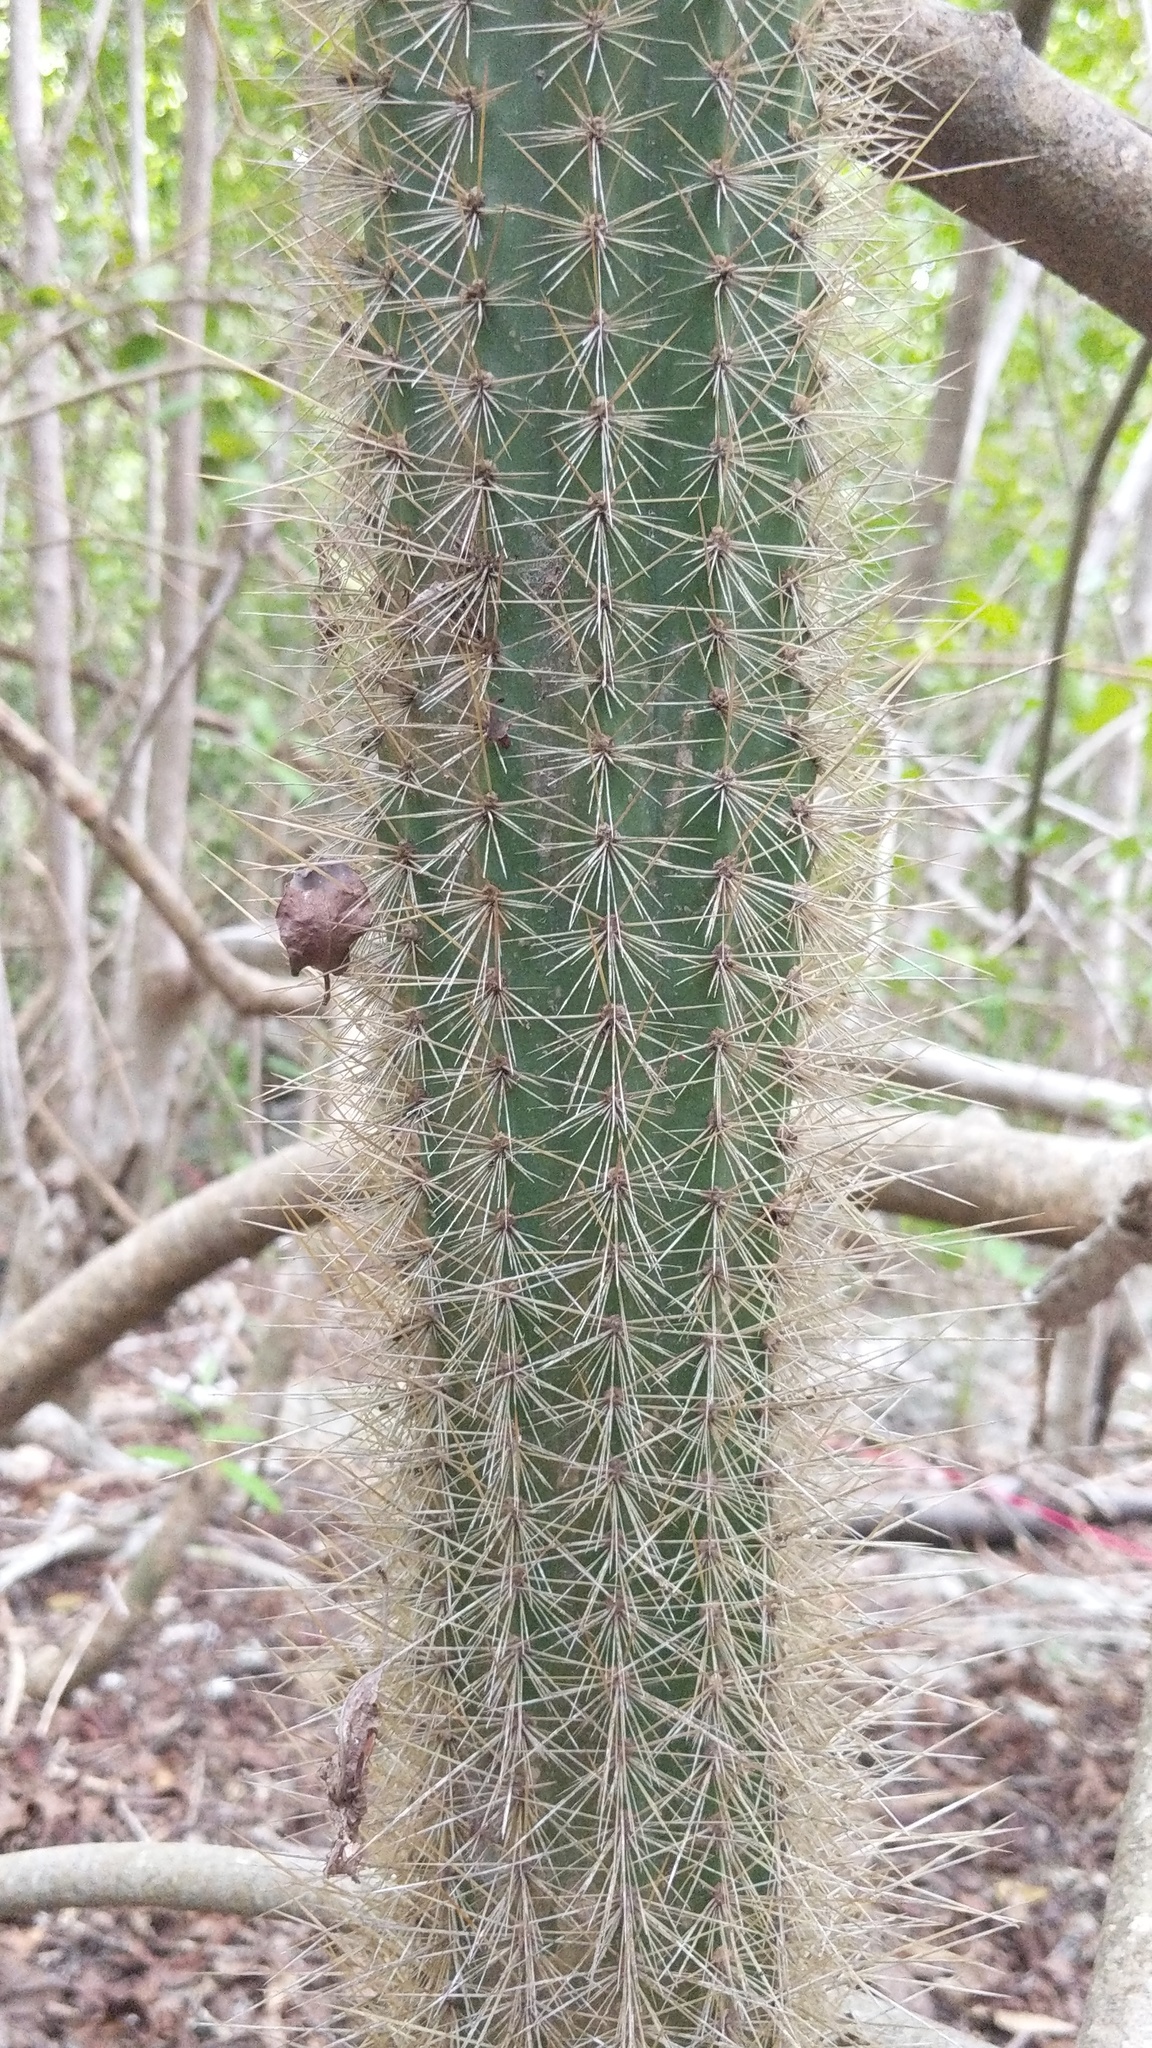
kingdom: Plantae
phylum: Tracheophyta
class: Magnoliopsida
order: Caryophyllales
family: Cactaceae
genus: Pilosocereus
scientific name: Pilosocereus jamaicensis
